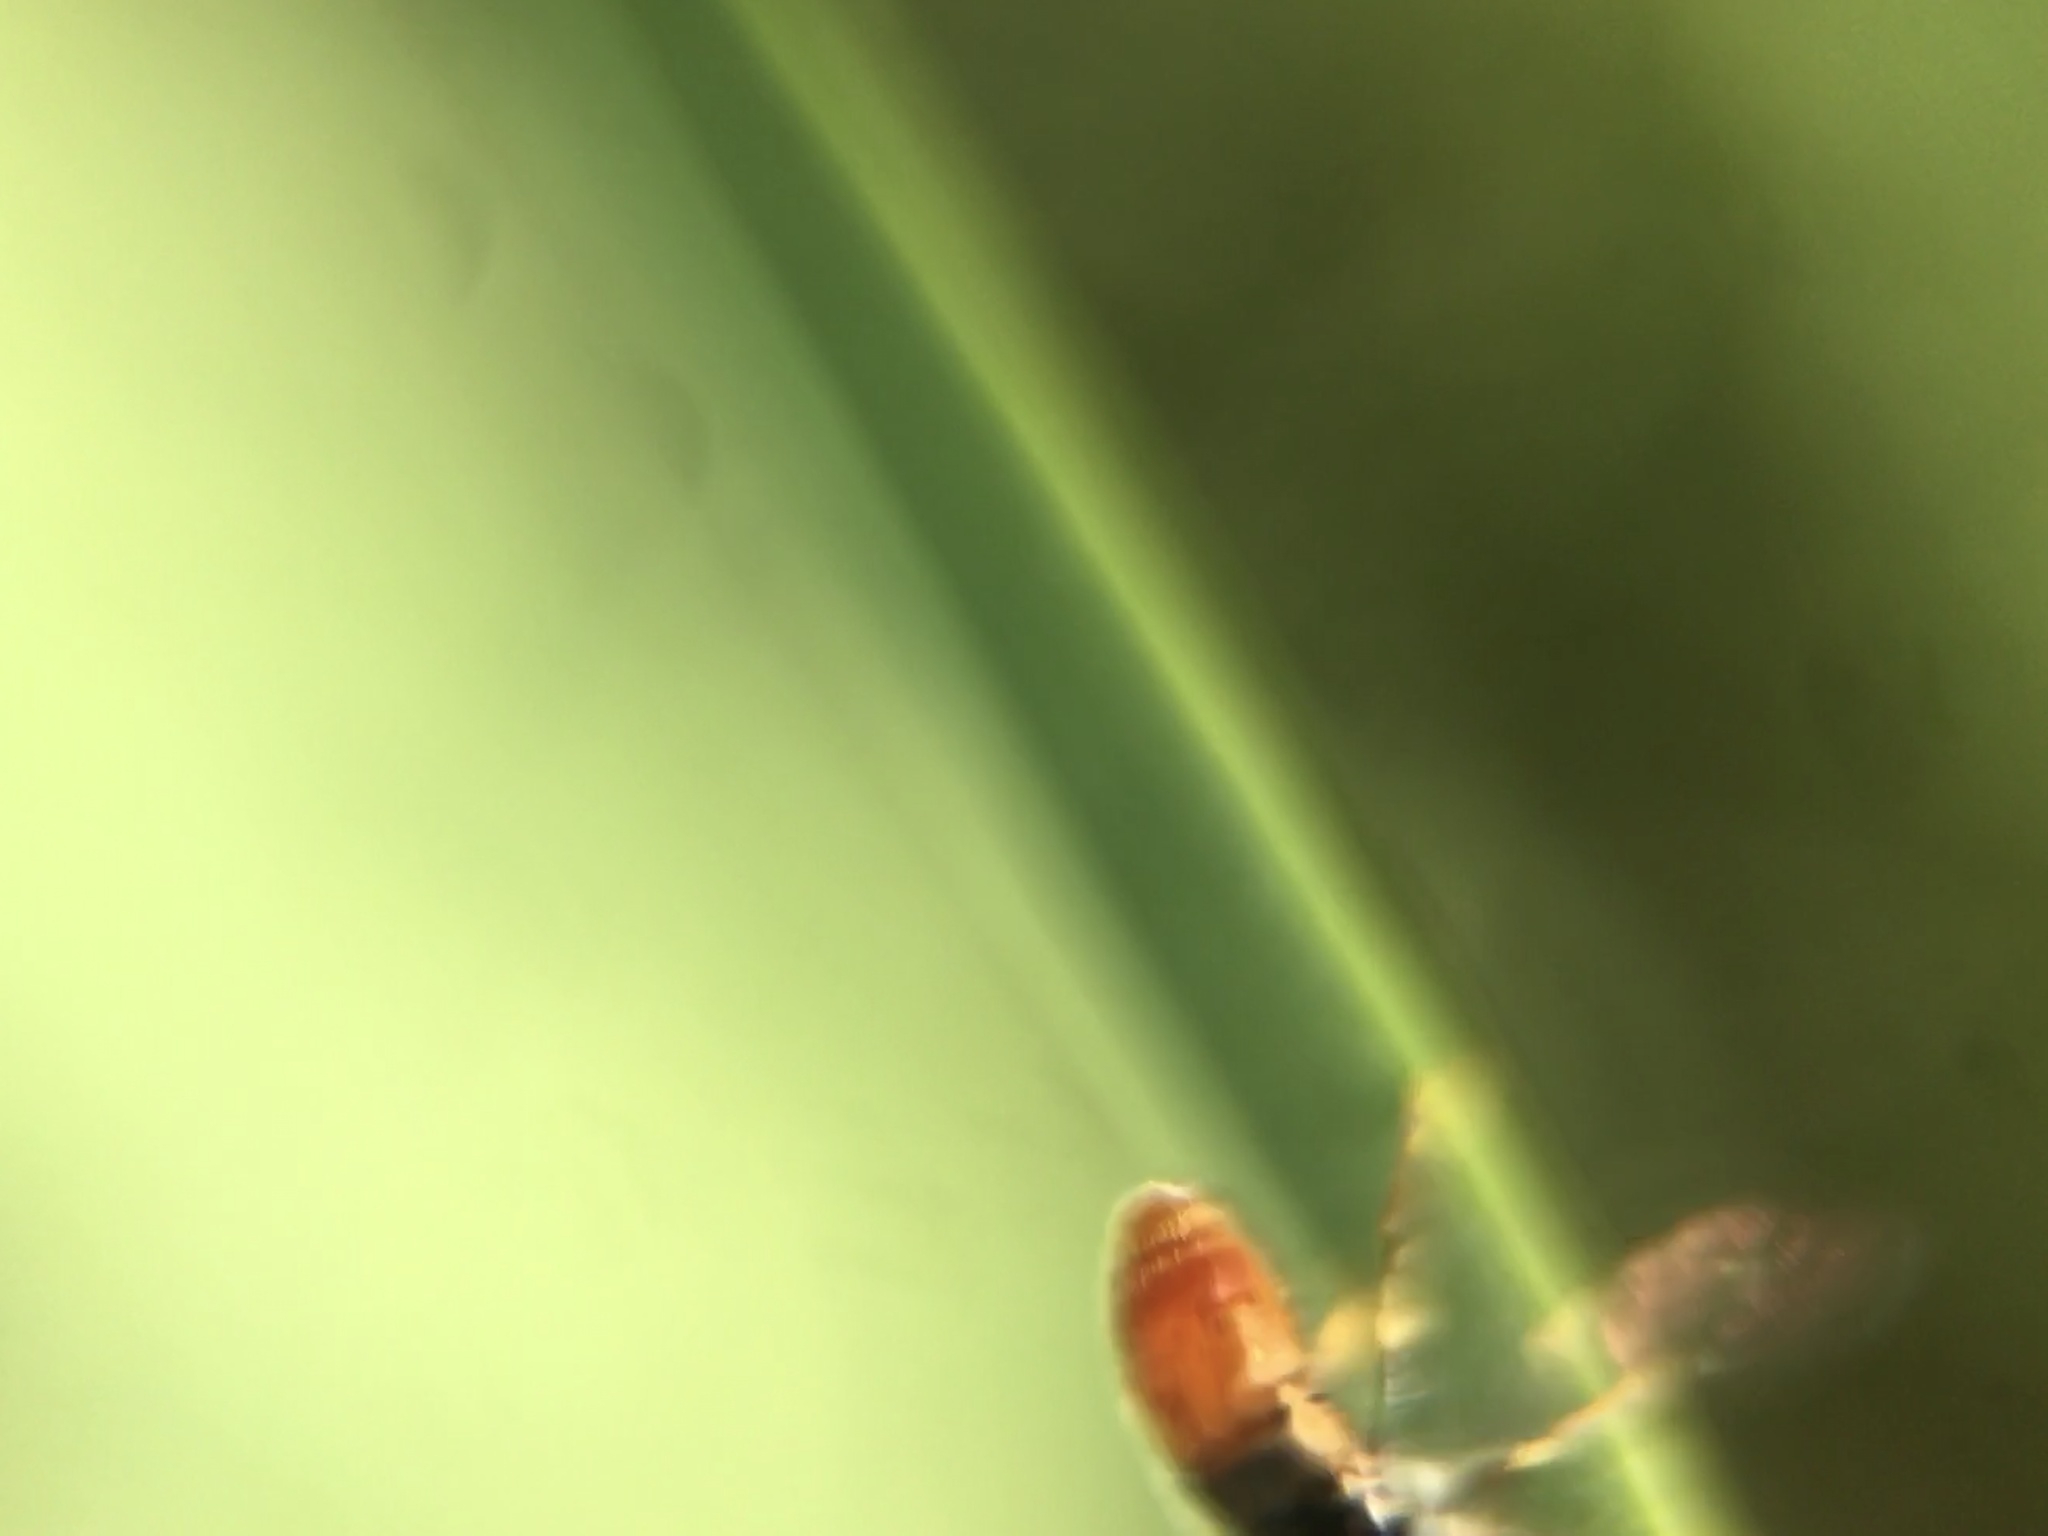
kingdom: Animalia
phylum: Arthropoda
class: Insecta
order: Diptera
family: Syrphidae
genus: Paragus
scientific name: Paragus haemorrhous
